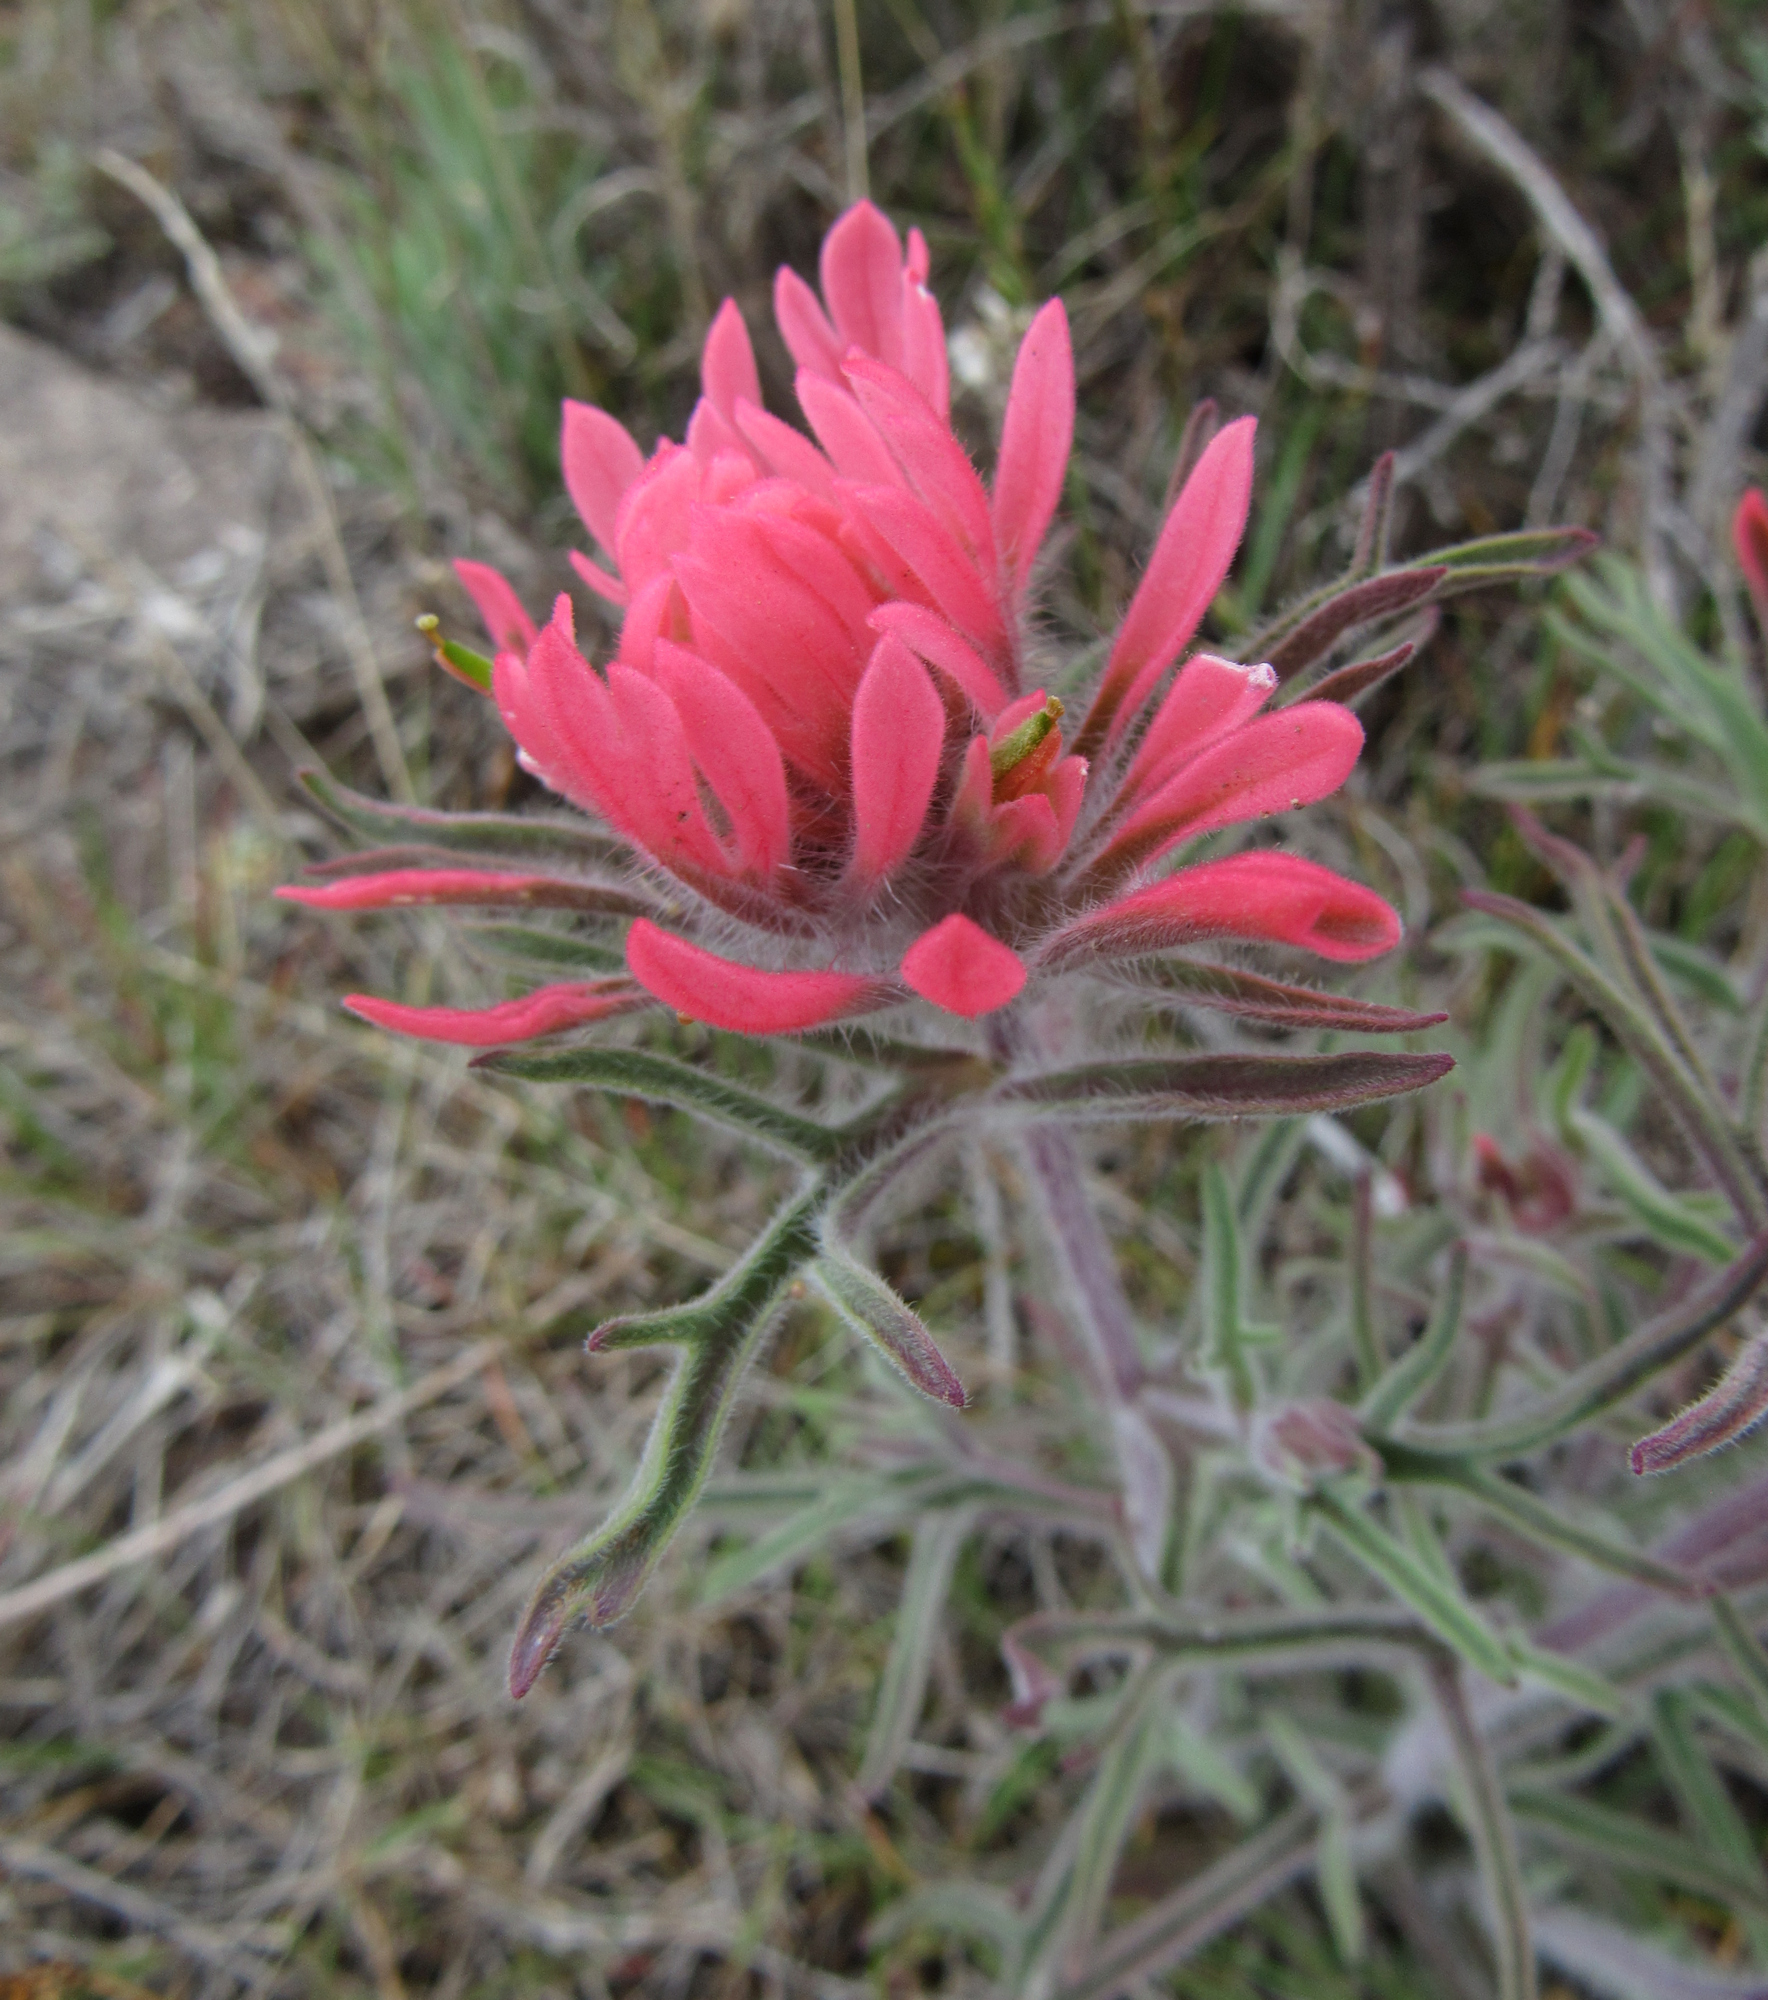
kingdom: Plantae
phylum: Tracheophyta
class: Magnoliopsida
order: Lamiales
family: Orobanchaceae
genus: Castilleja
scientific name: Castilleja angustifolia
